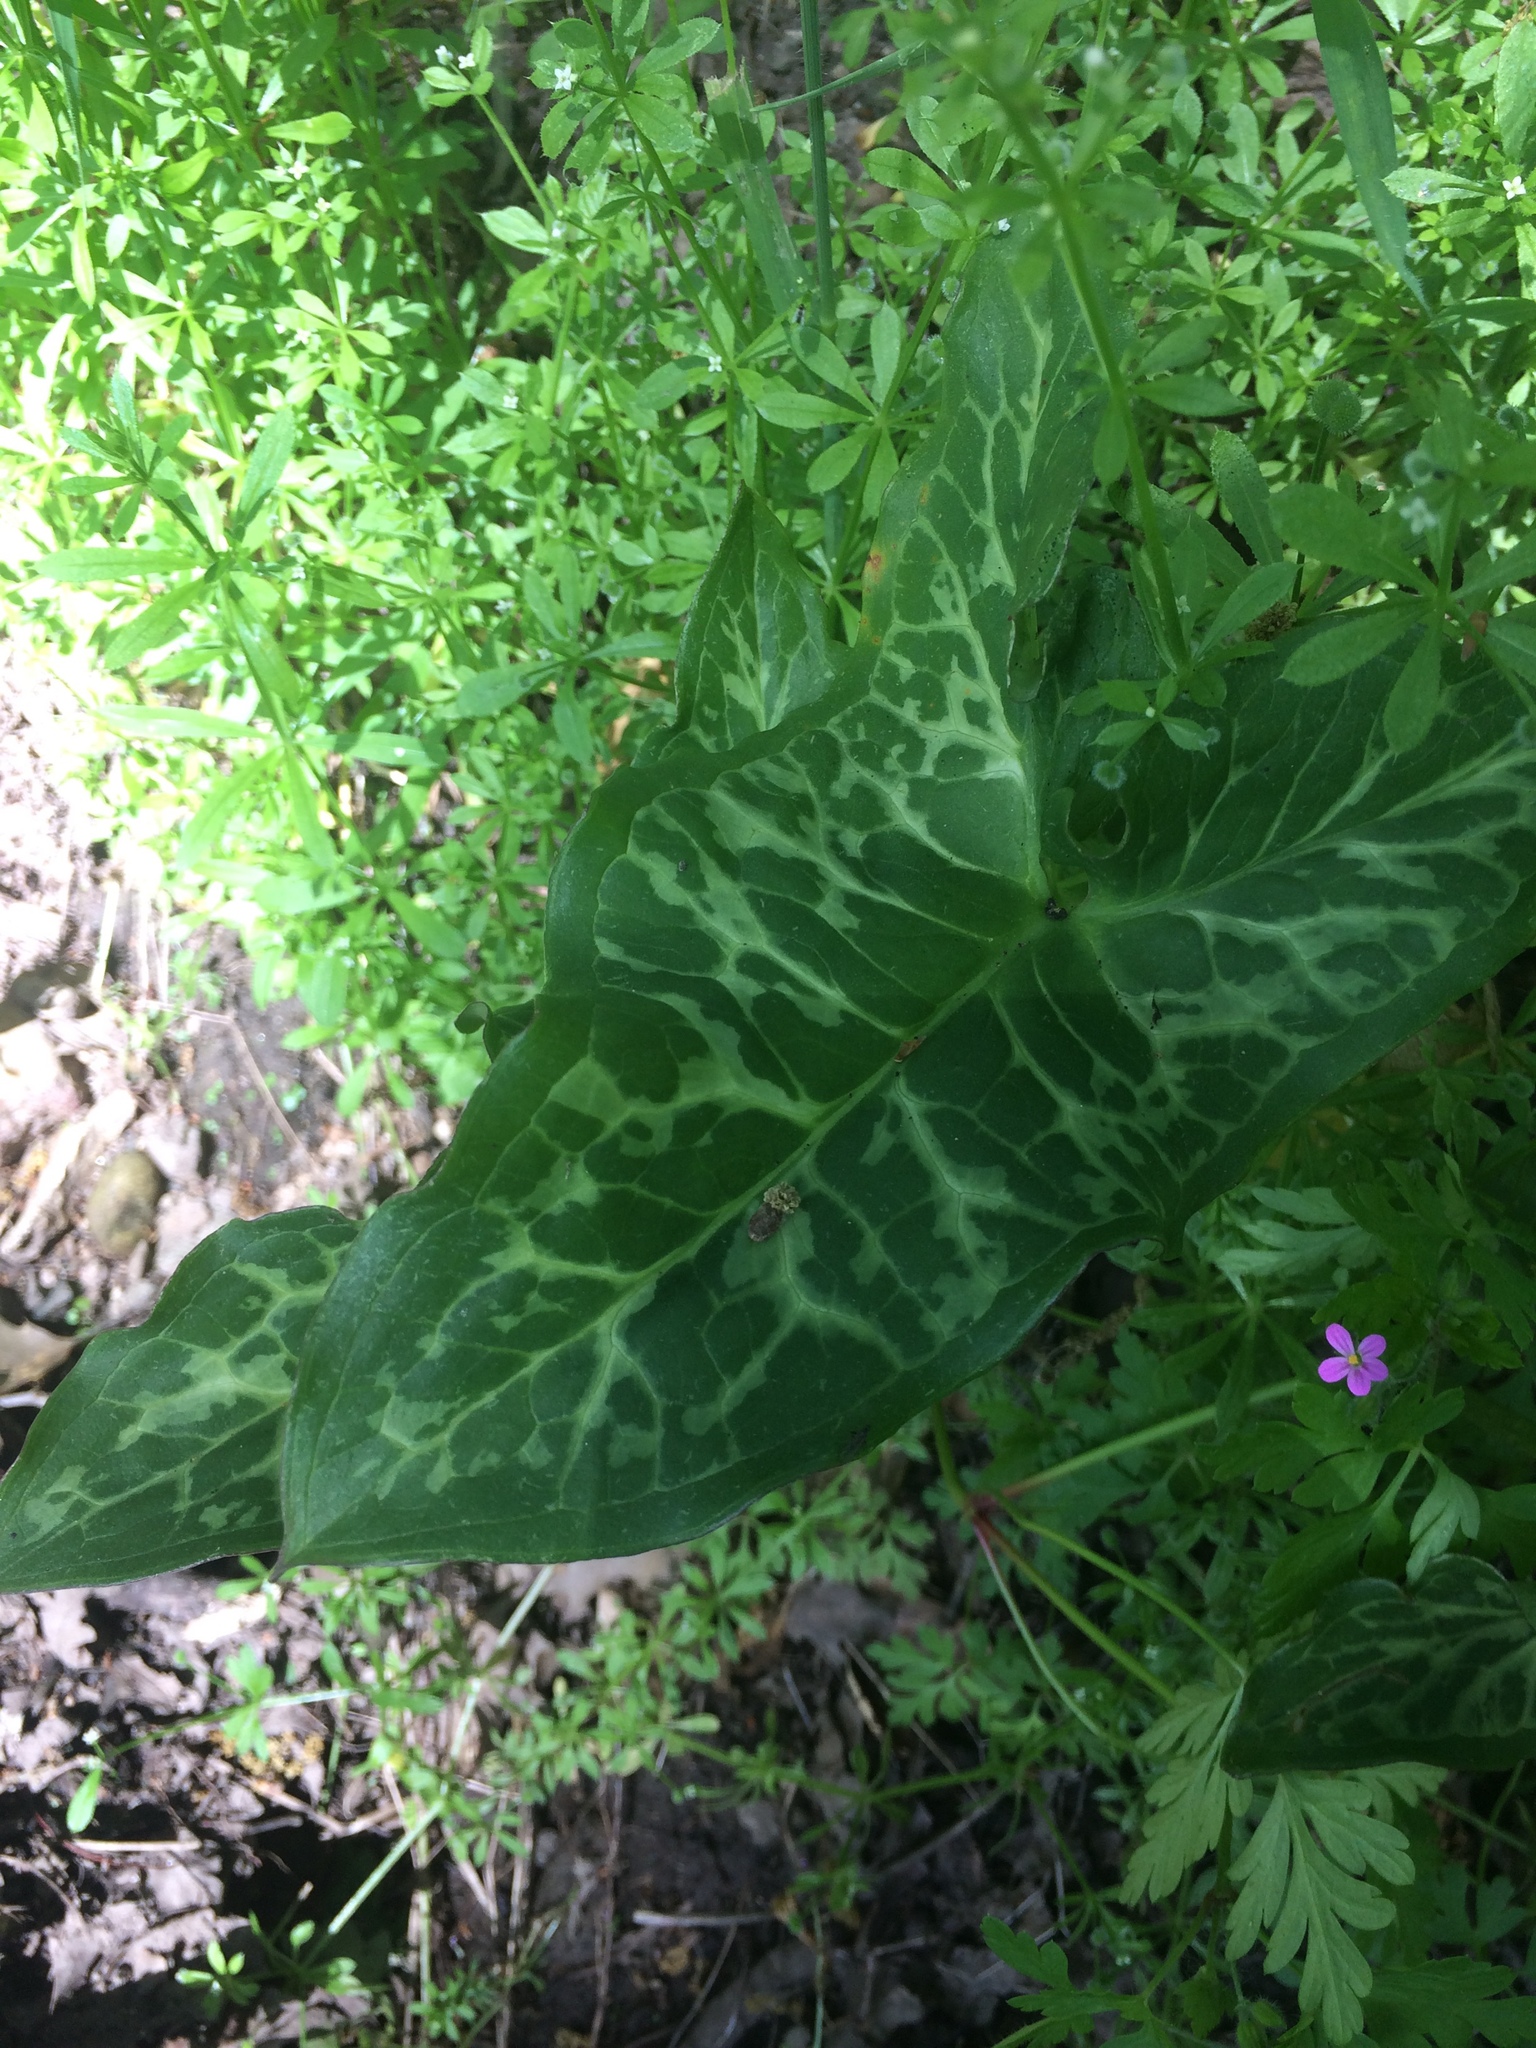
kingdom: Plantae
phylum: Tracheophyta
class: Liliopsida
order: Alismatales
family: Araceae
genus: Arum
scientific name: Arum italicum
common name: Italian lords-and-ladies
